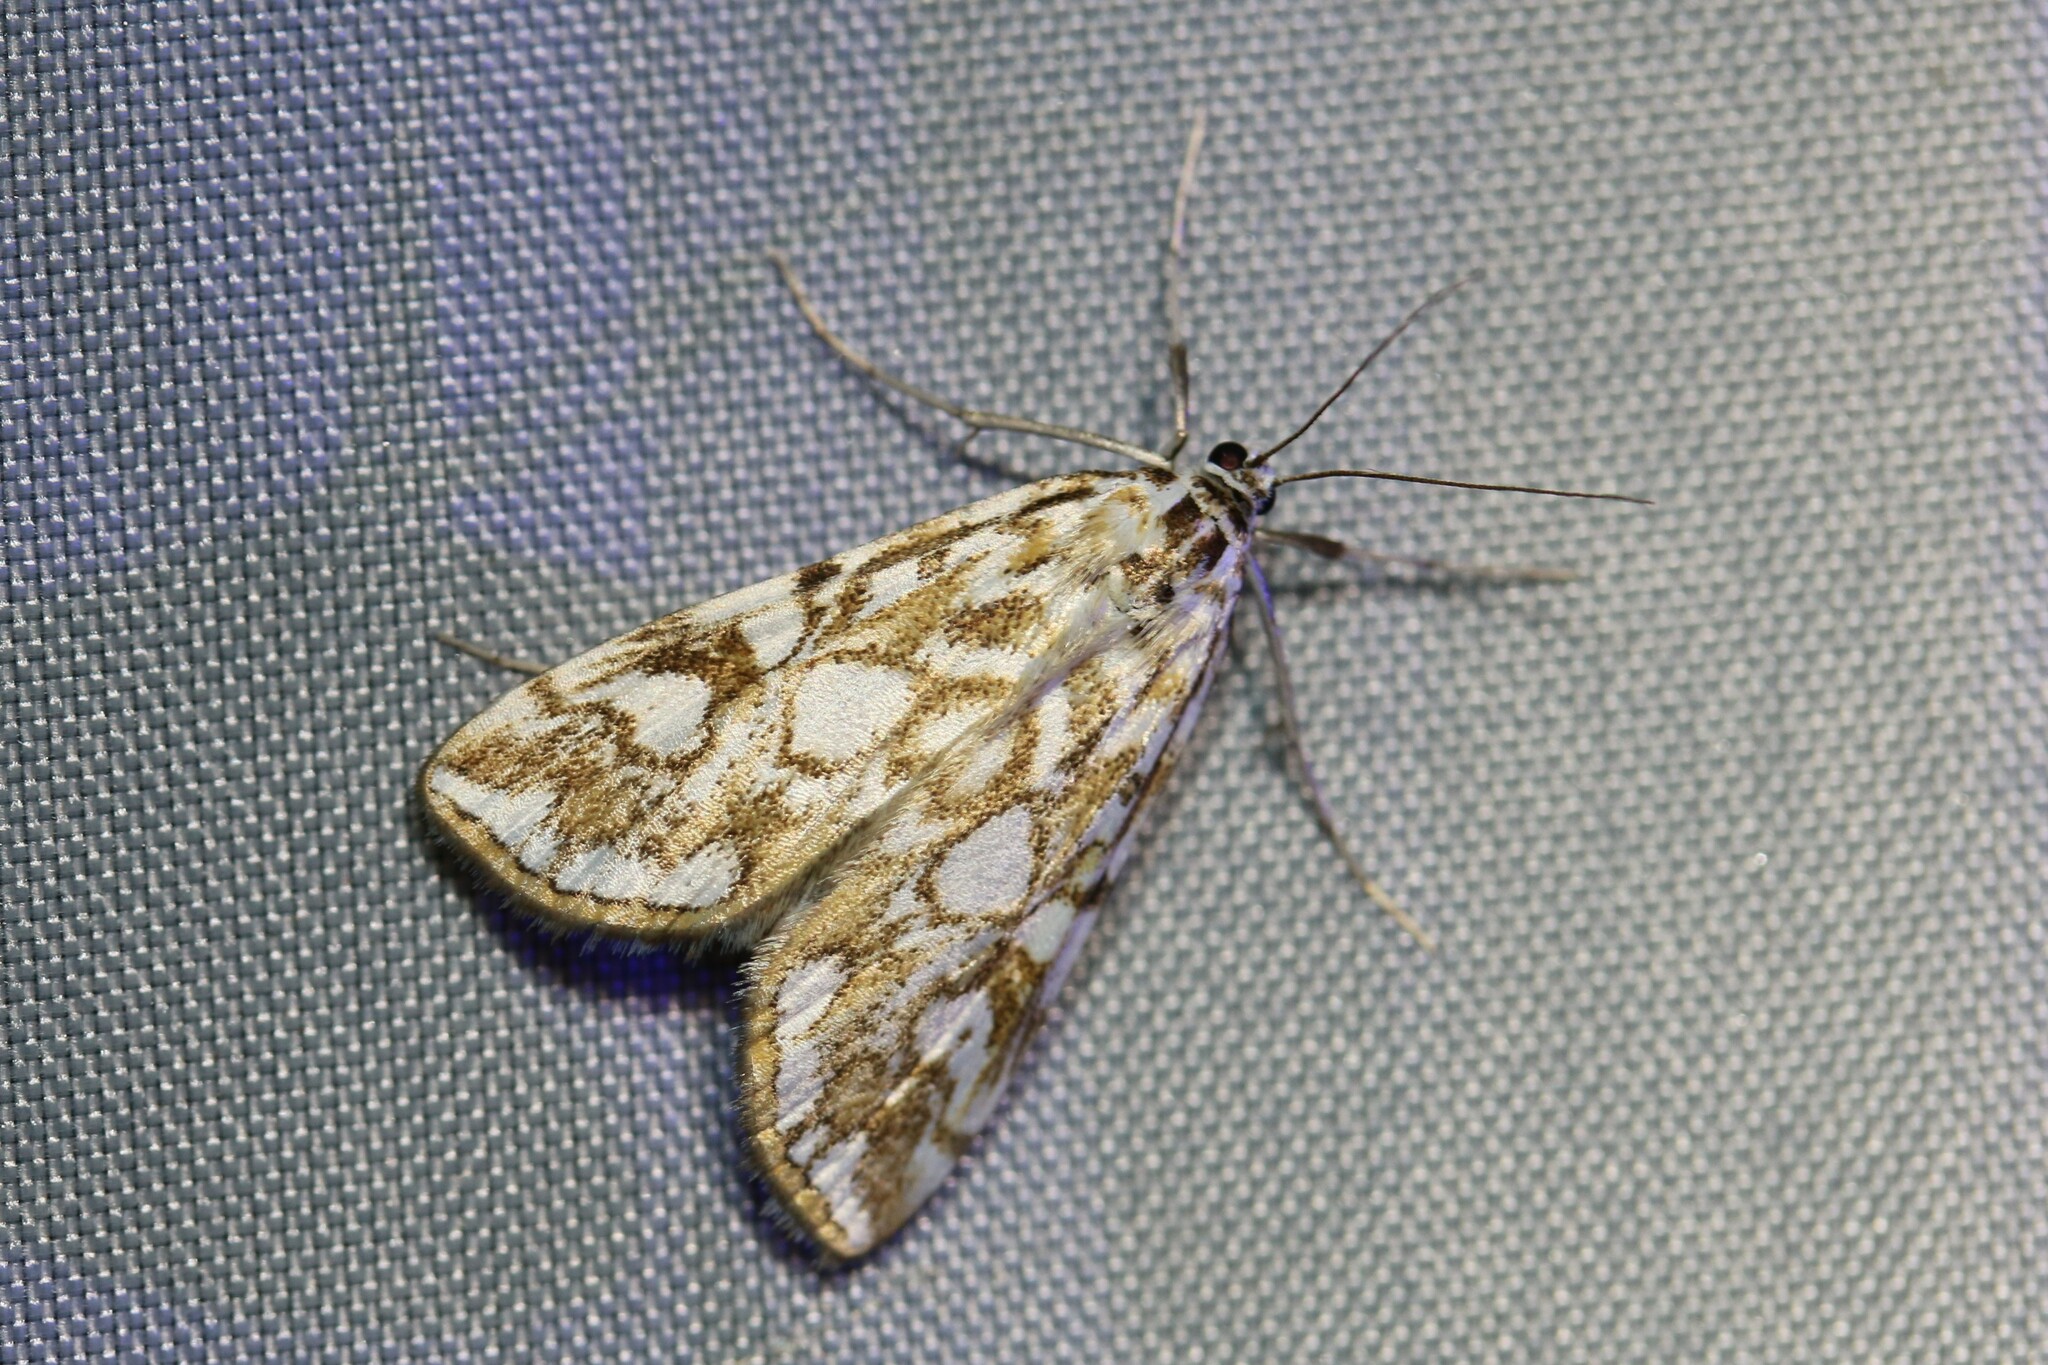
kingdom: Animalia
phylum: Arthropoda
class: Insecta
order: Lepidoptera
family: Crambidae
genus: Elophila
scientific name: Elophila nymphaeata
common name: Brown china-mark
